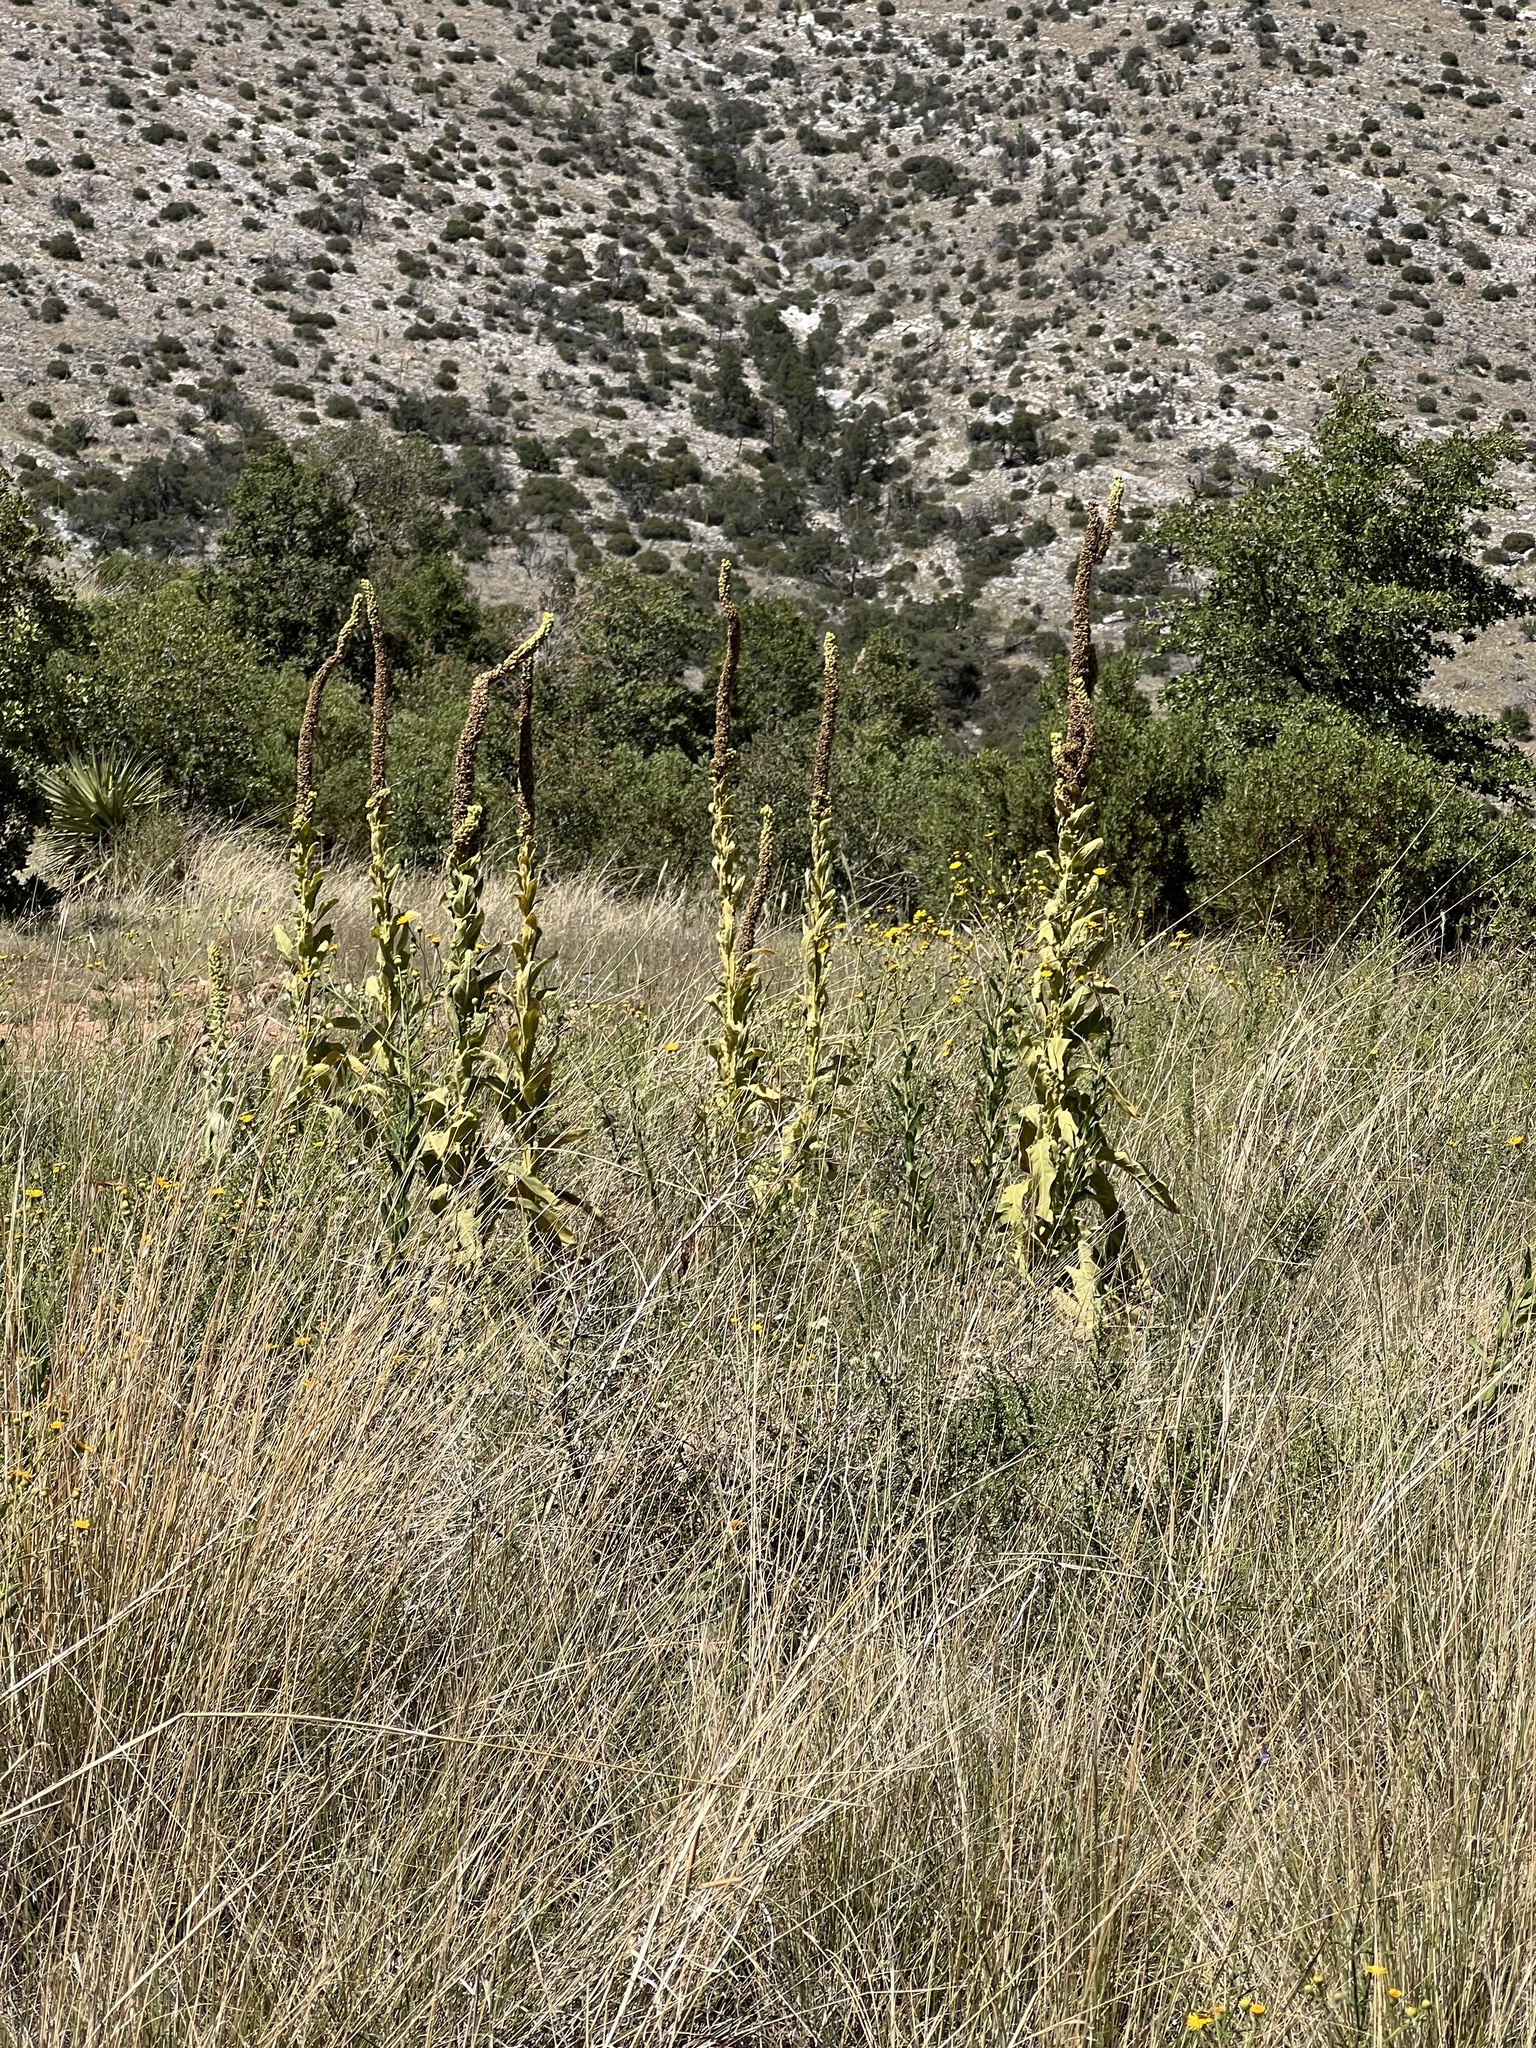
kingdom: Plantae
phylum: Tracheophyta
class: Magnoliopsida
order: Lamiales
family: Scrophulariaceae
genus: Verbascum
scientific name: Verbascum thapsus
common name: Common mullein
